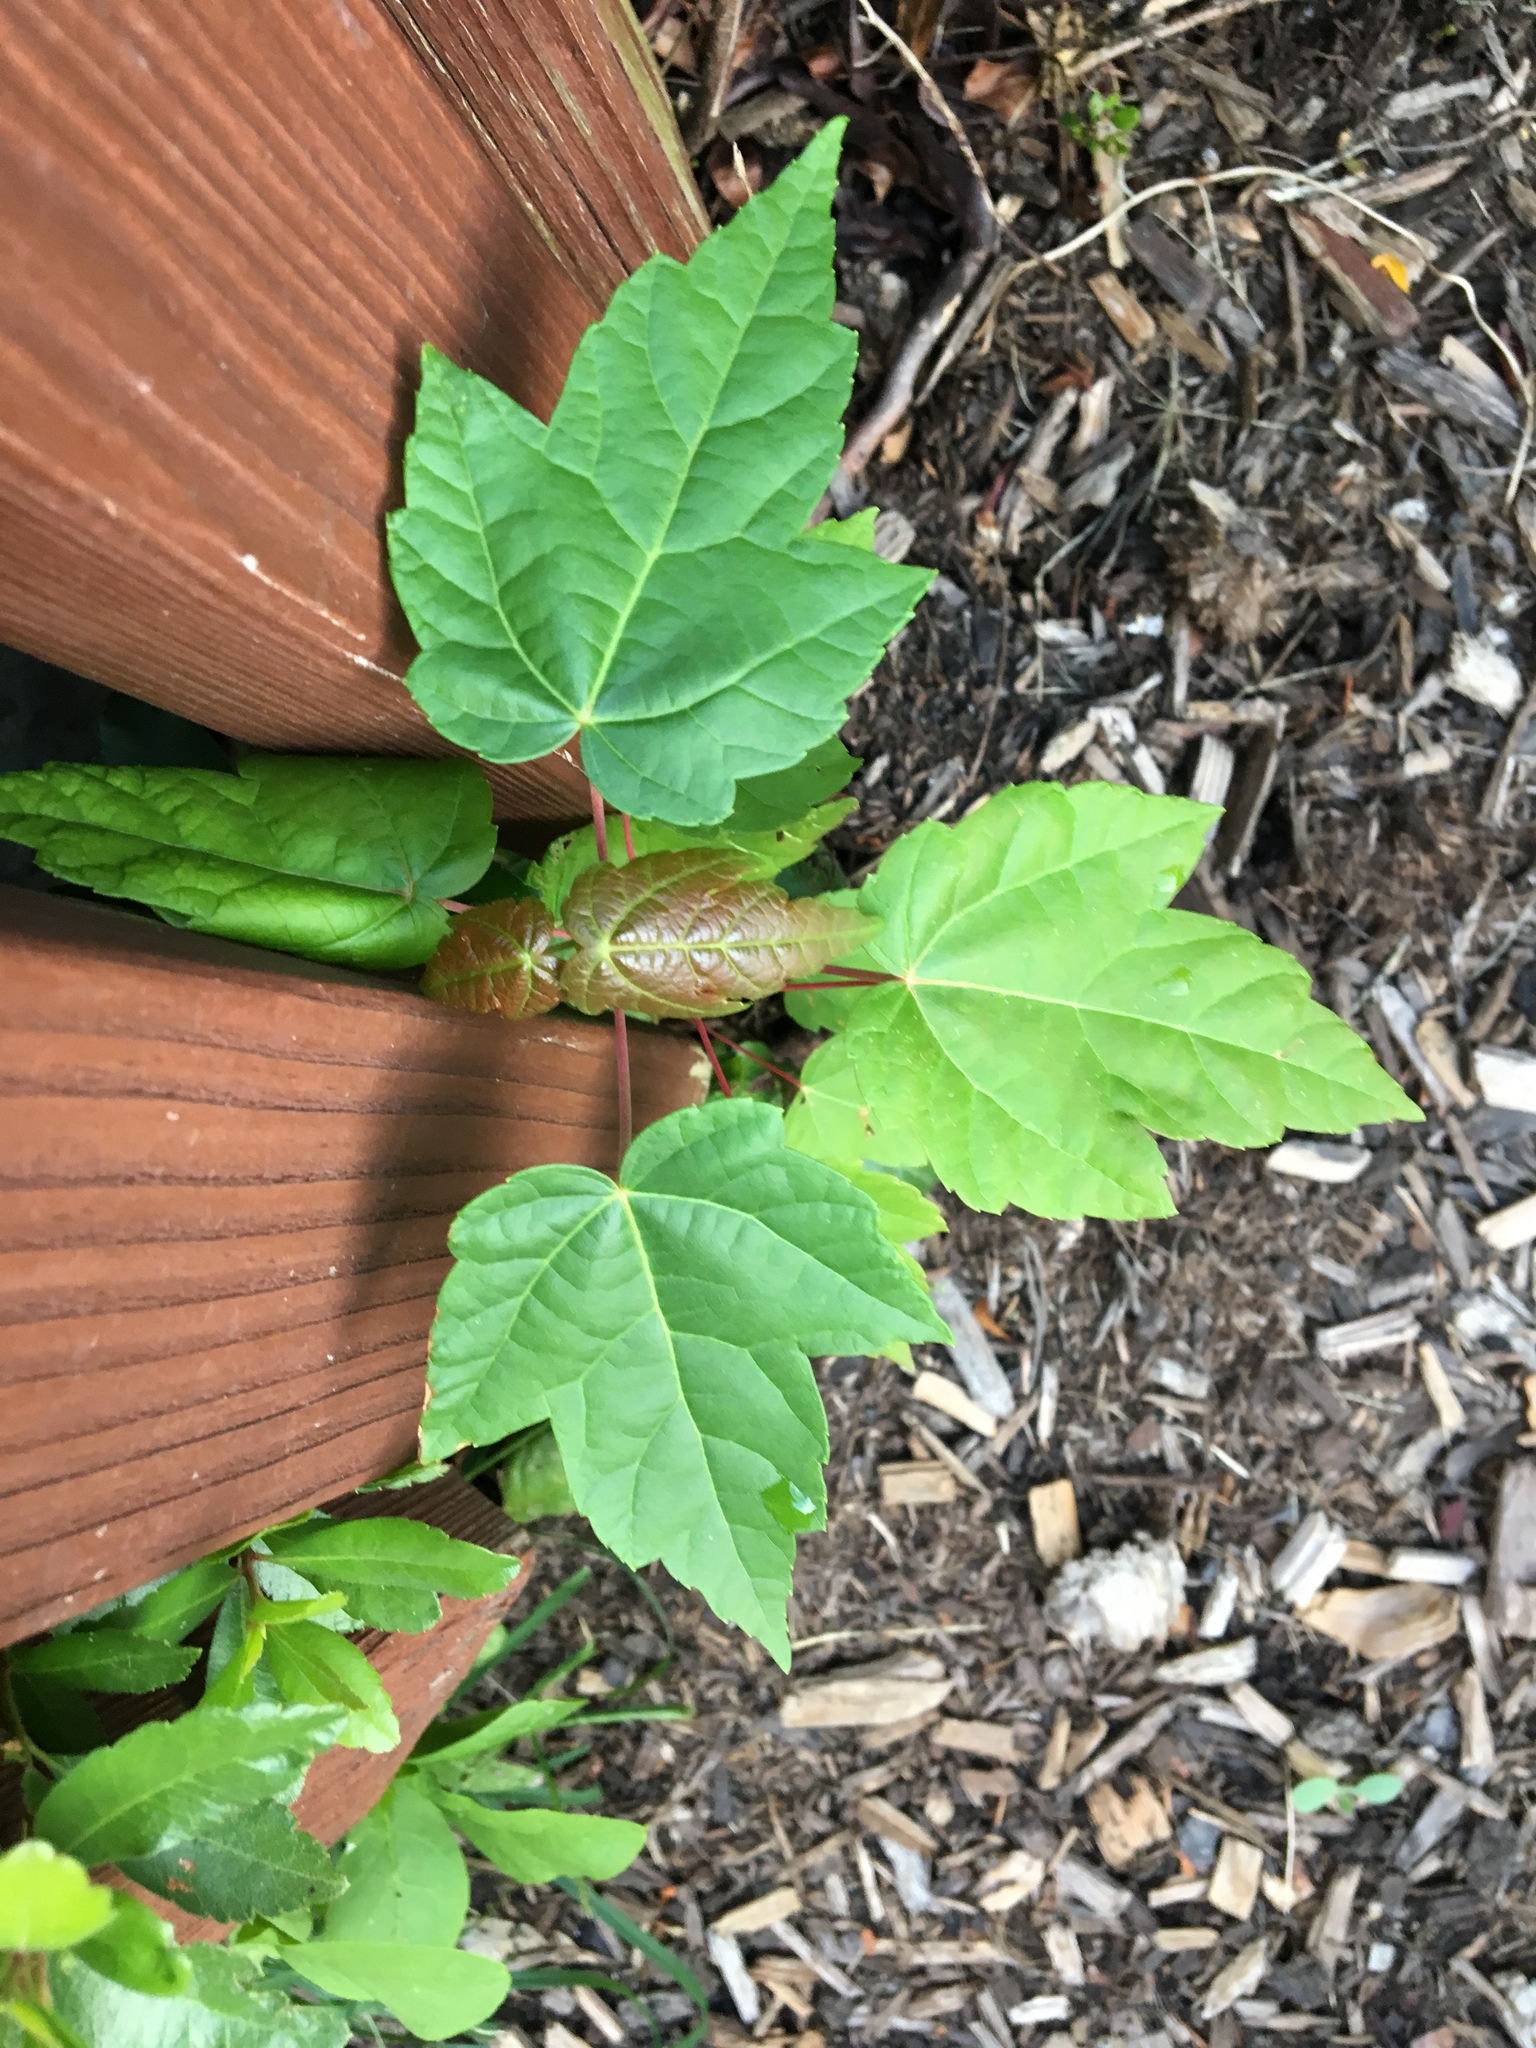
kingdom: Plantae
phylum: Tracheophyta
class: Magnoliopsida
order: Sapindales
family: Sapindaceae
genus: Acer
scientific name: Acer rubrum
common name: Red maple
